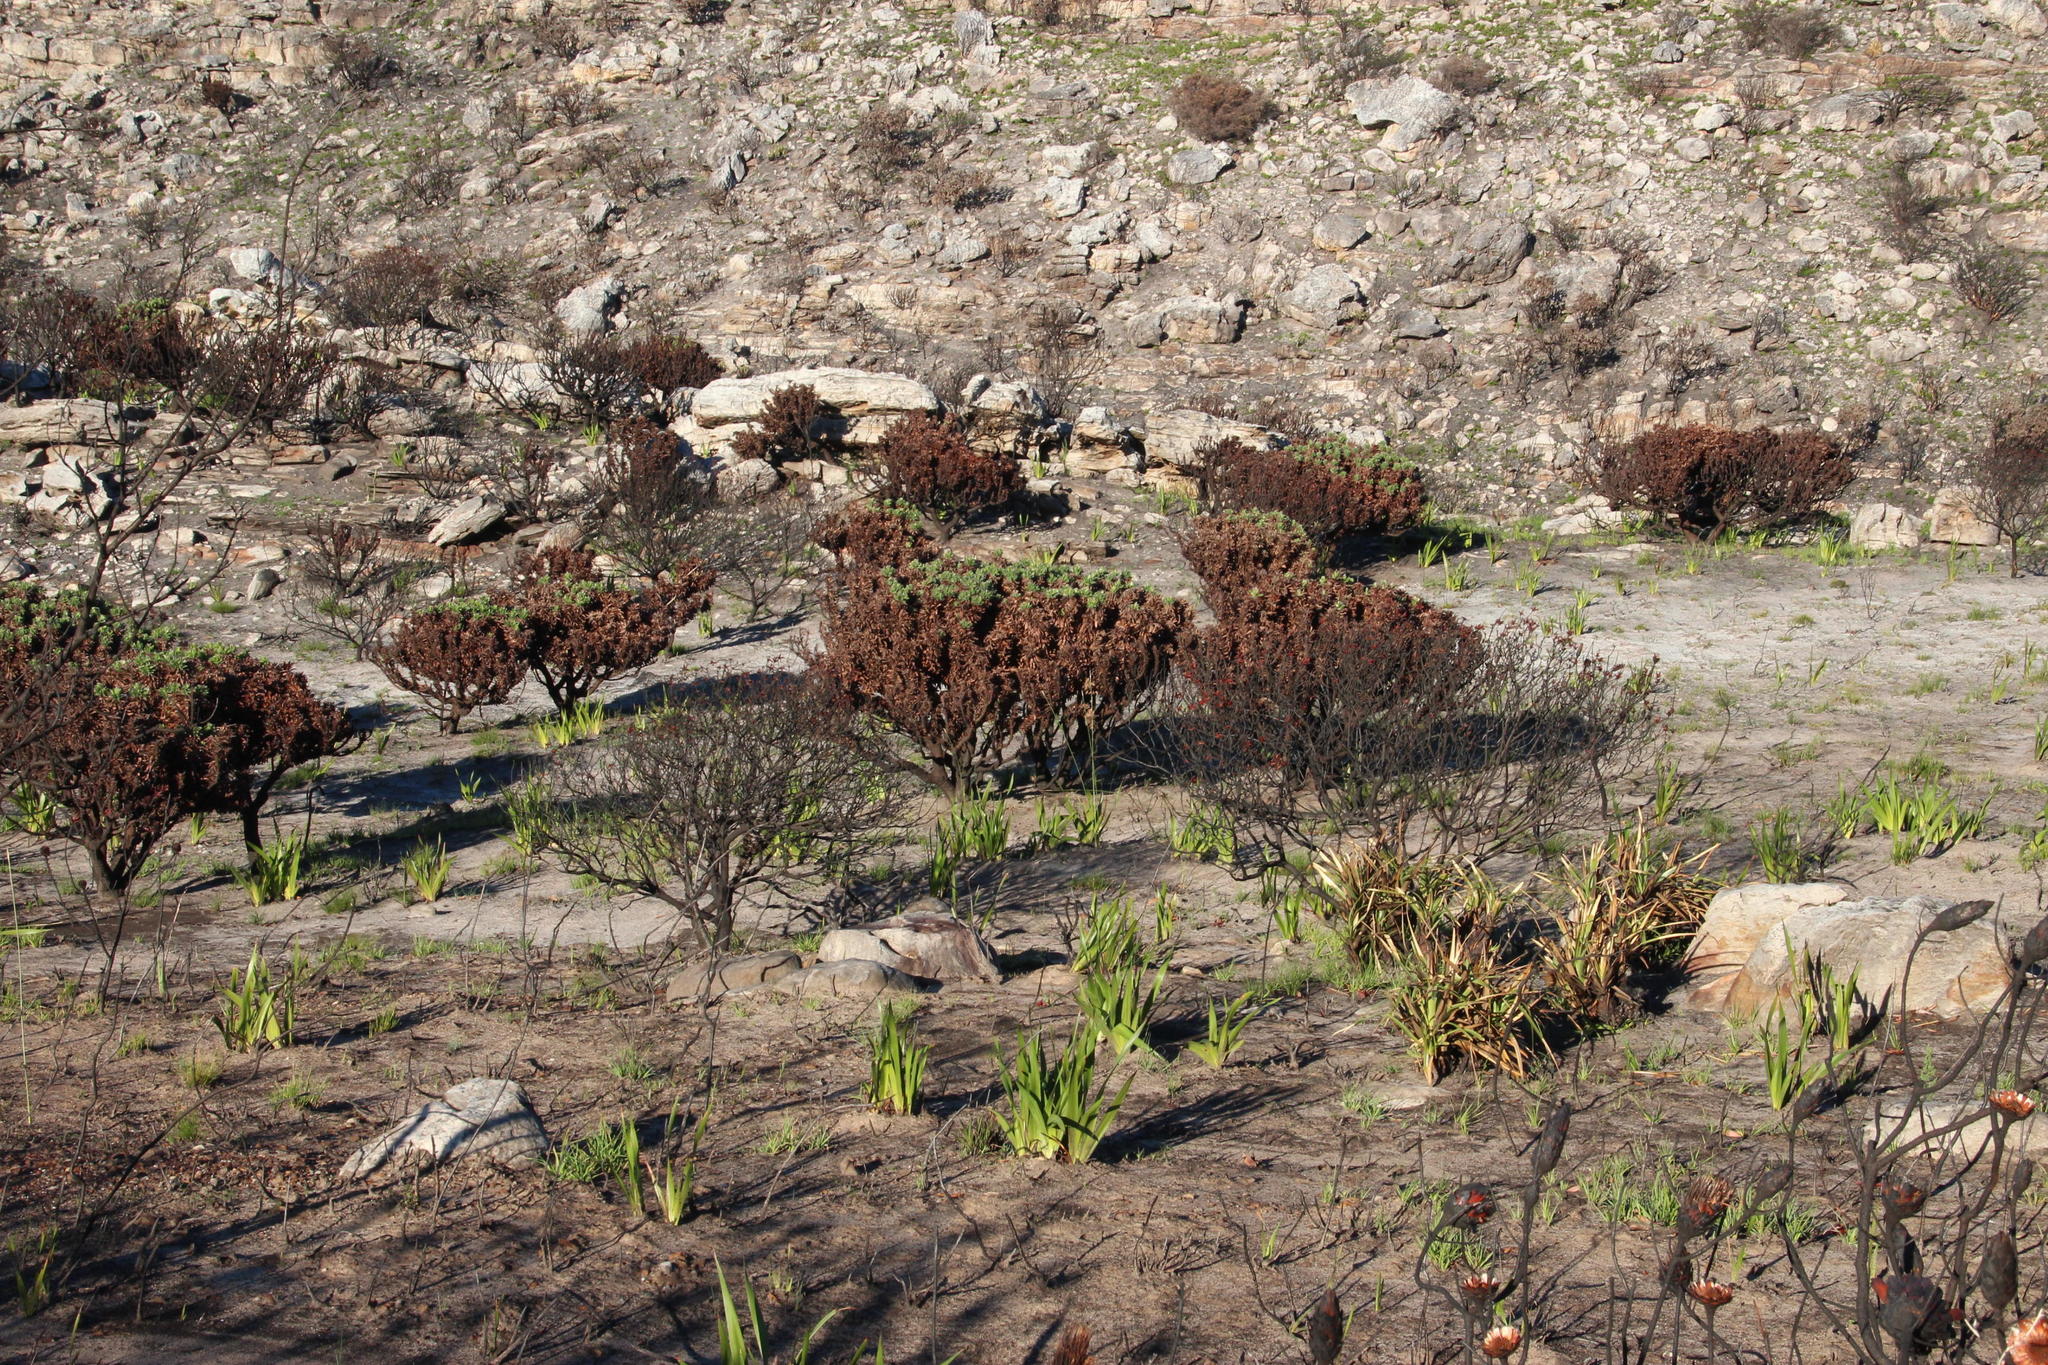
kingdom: Plantae
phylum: Tracheophyta
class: Magnoliopsida
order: Proteales
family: Proteaceae
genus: Leucospermum
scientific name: Leucospermum conocarpodendron
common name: Tree pincushion
